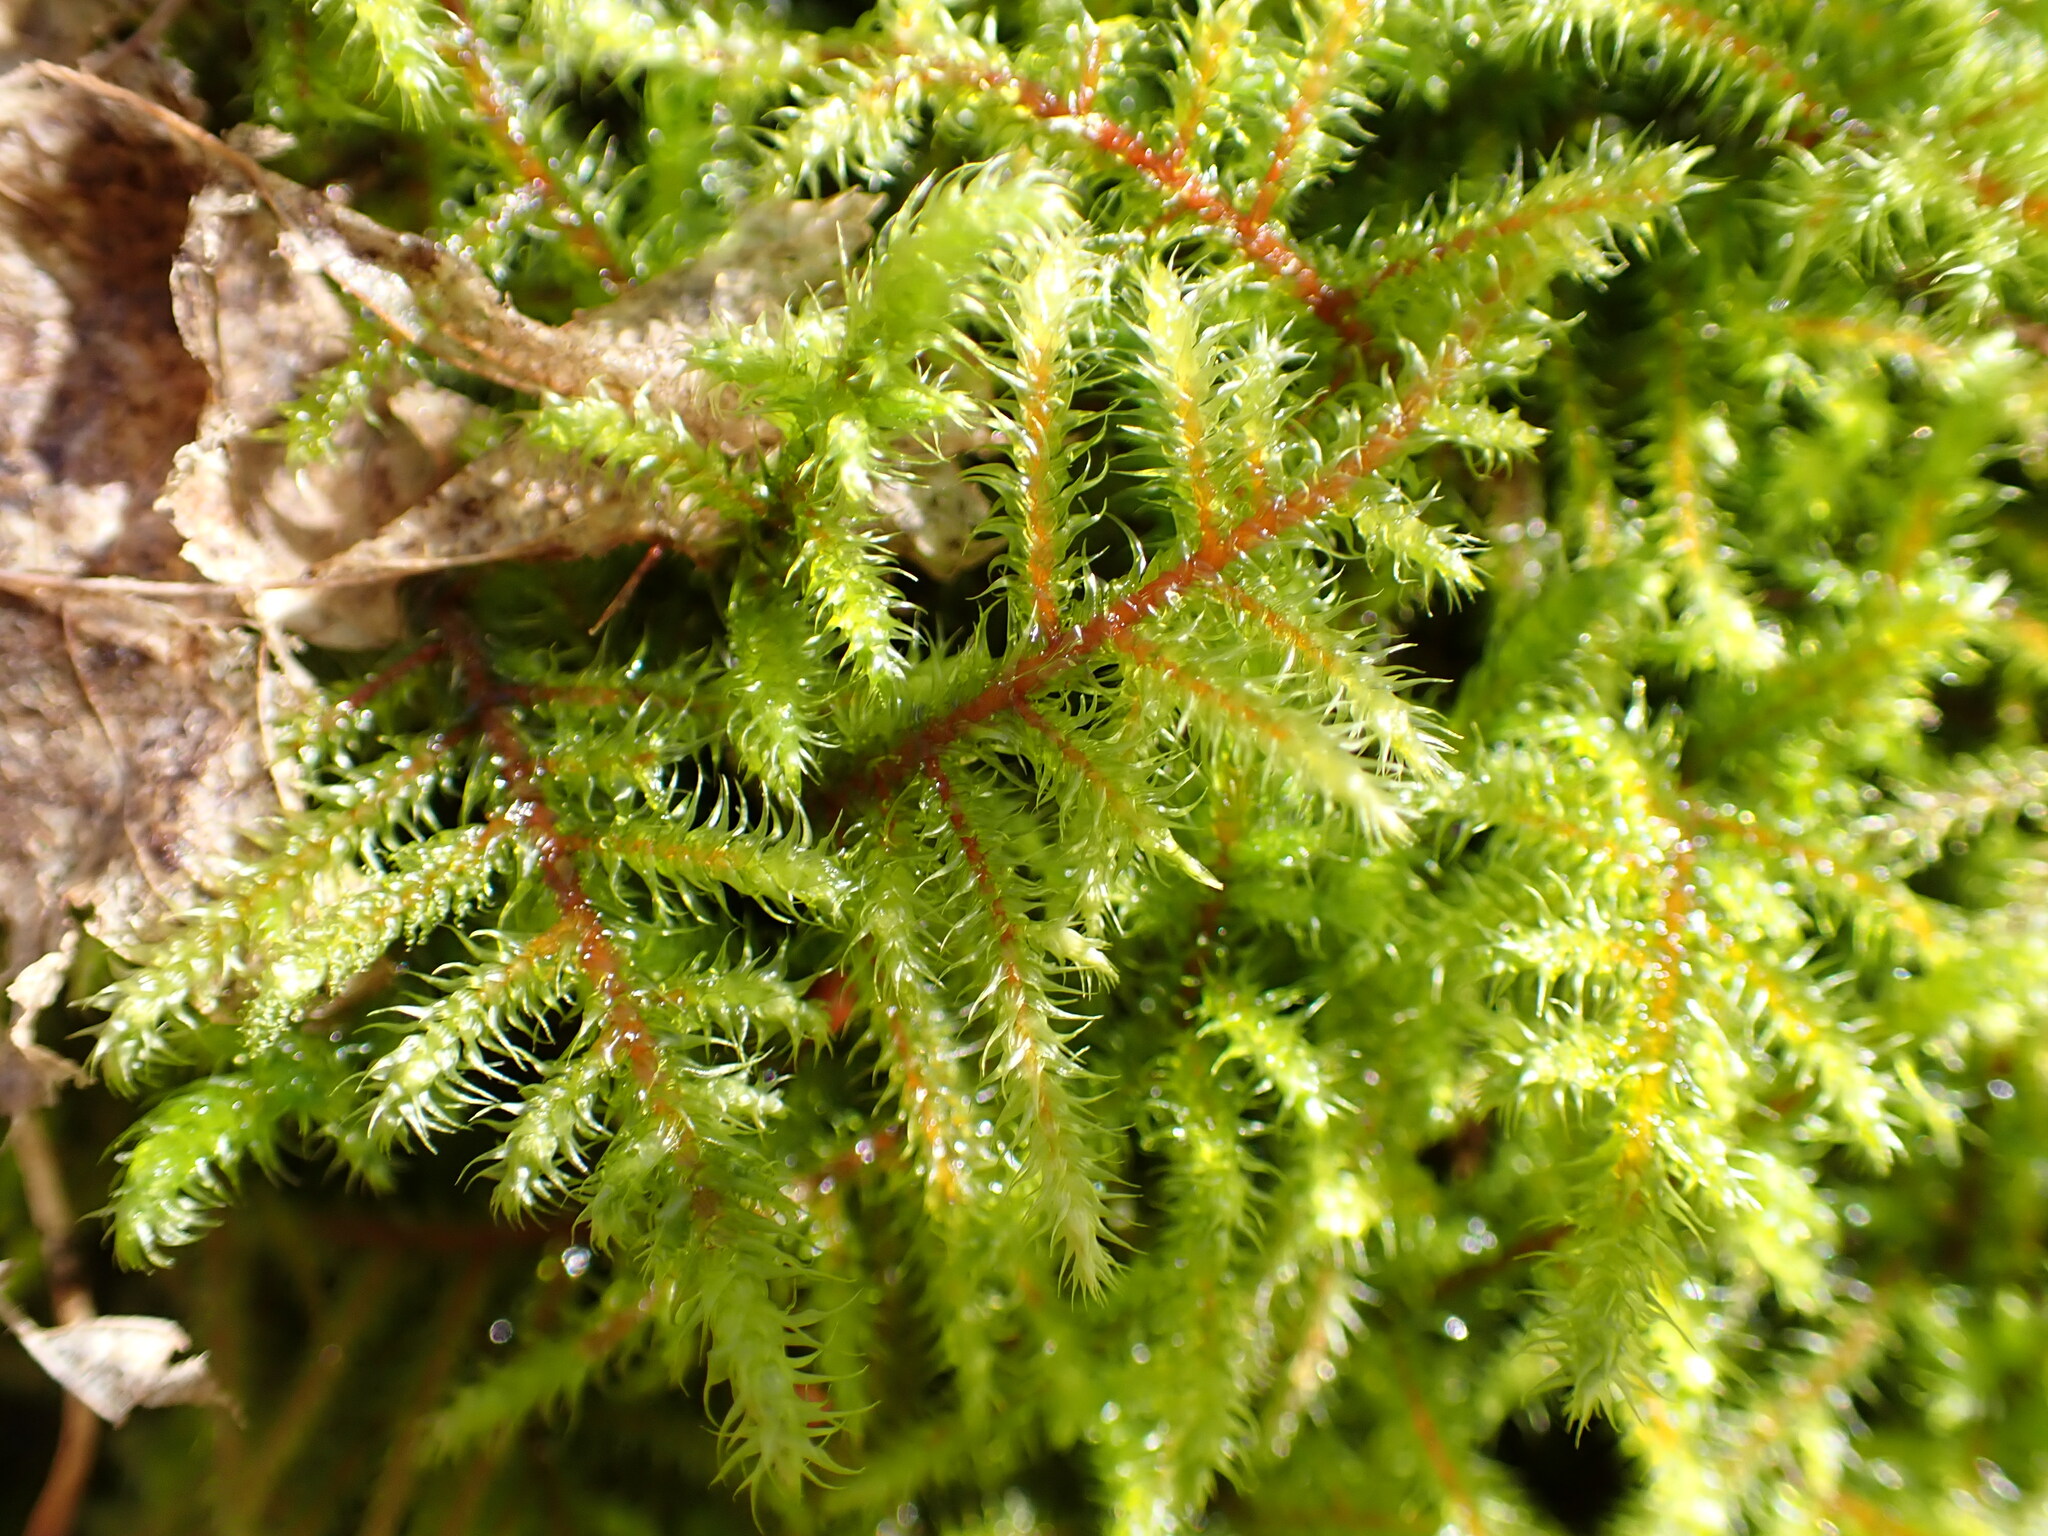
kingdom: Plantae
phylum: Bryophyta
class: Bryopsida
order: Hypnales
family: Hylocomiaceae
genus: Rhytidiadelphus
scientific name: Rhytidiadelphus loreus
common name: Lanky moss
